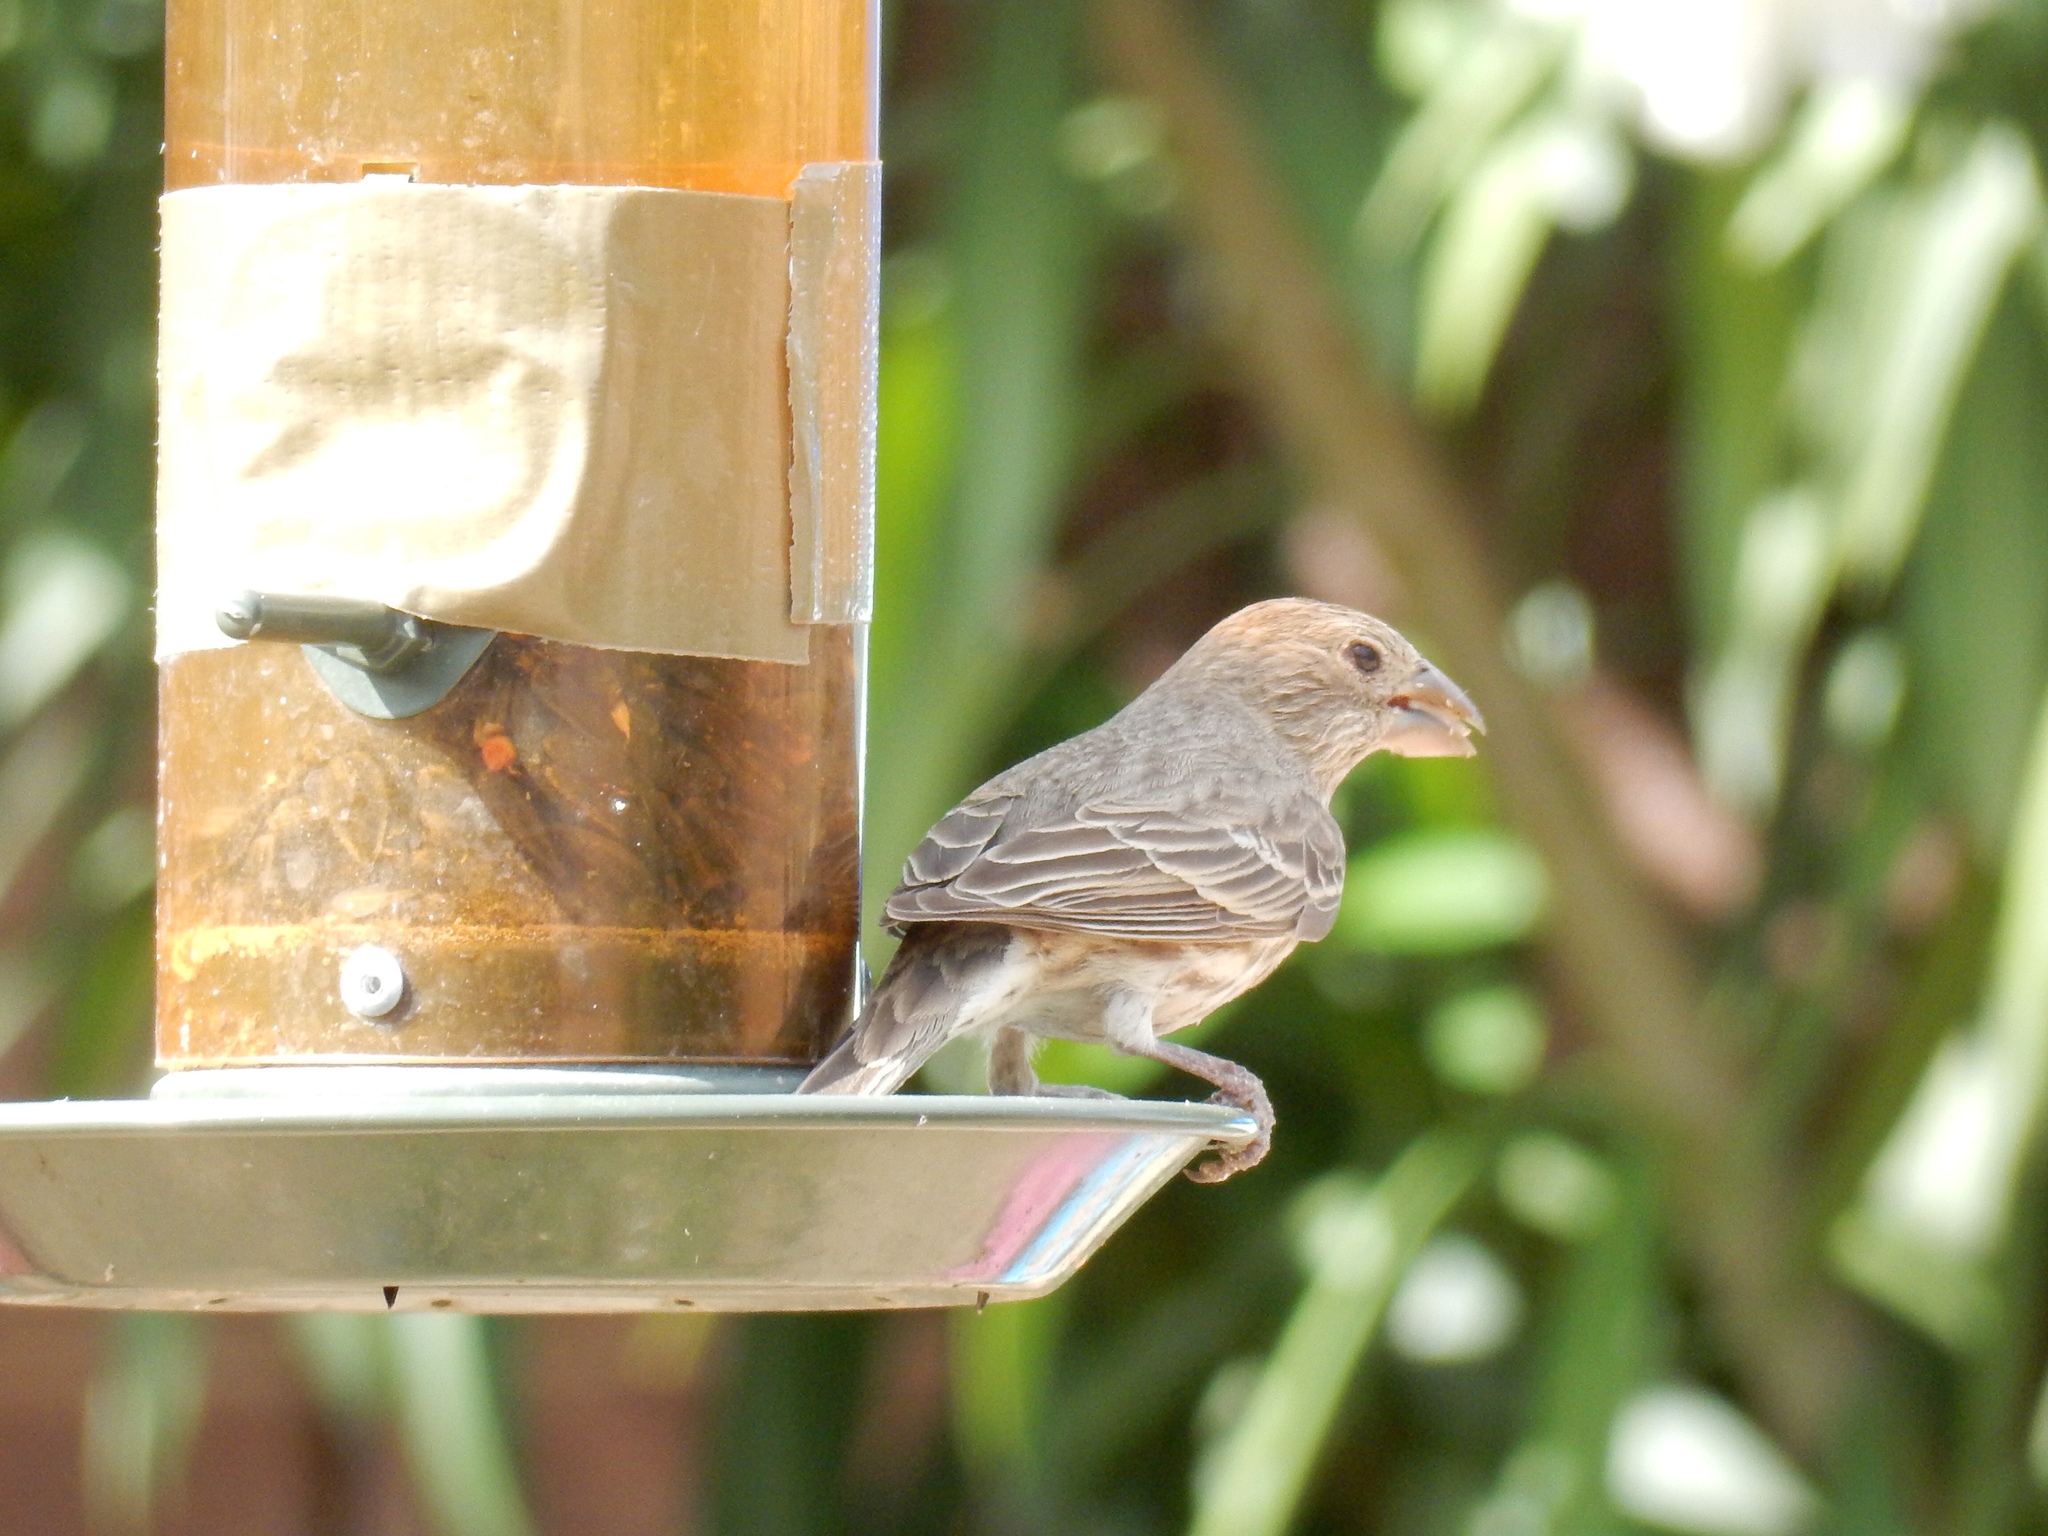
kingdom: Animalia
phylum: Chordata
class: Aves
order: Passeriformes
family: Fringillidae
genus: Haemorhous
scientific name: Haemorhous mexicanus
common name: House finch
